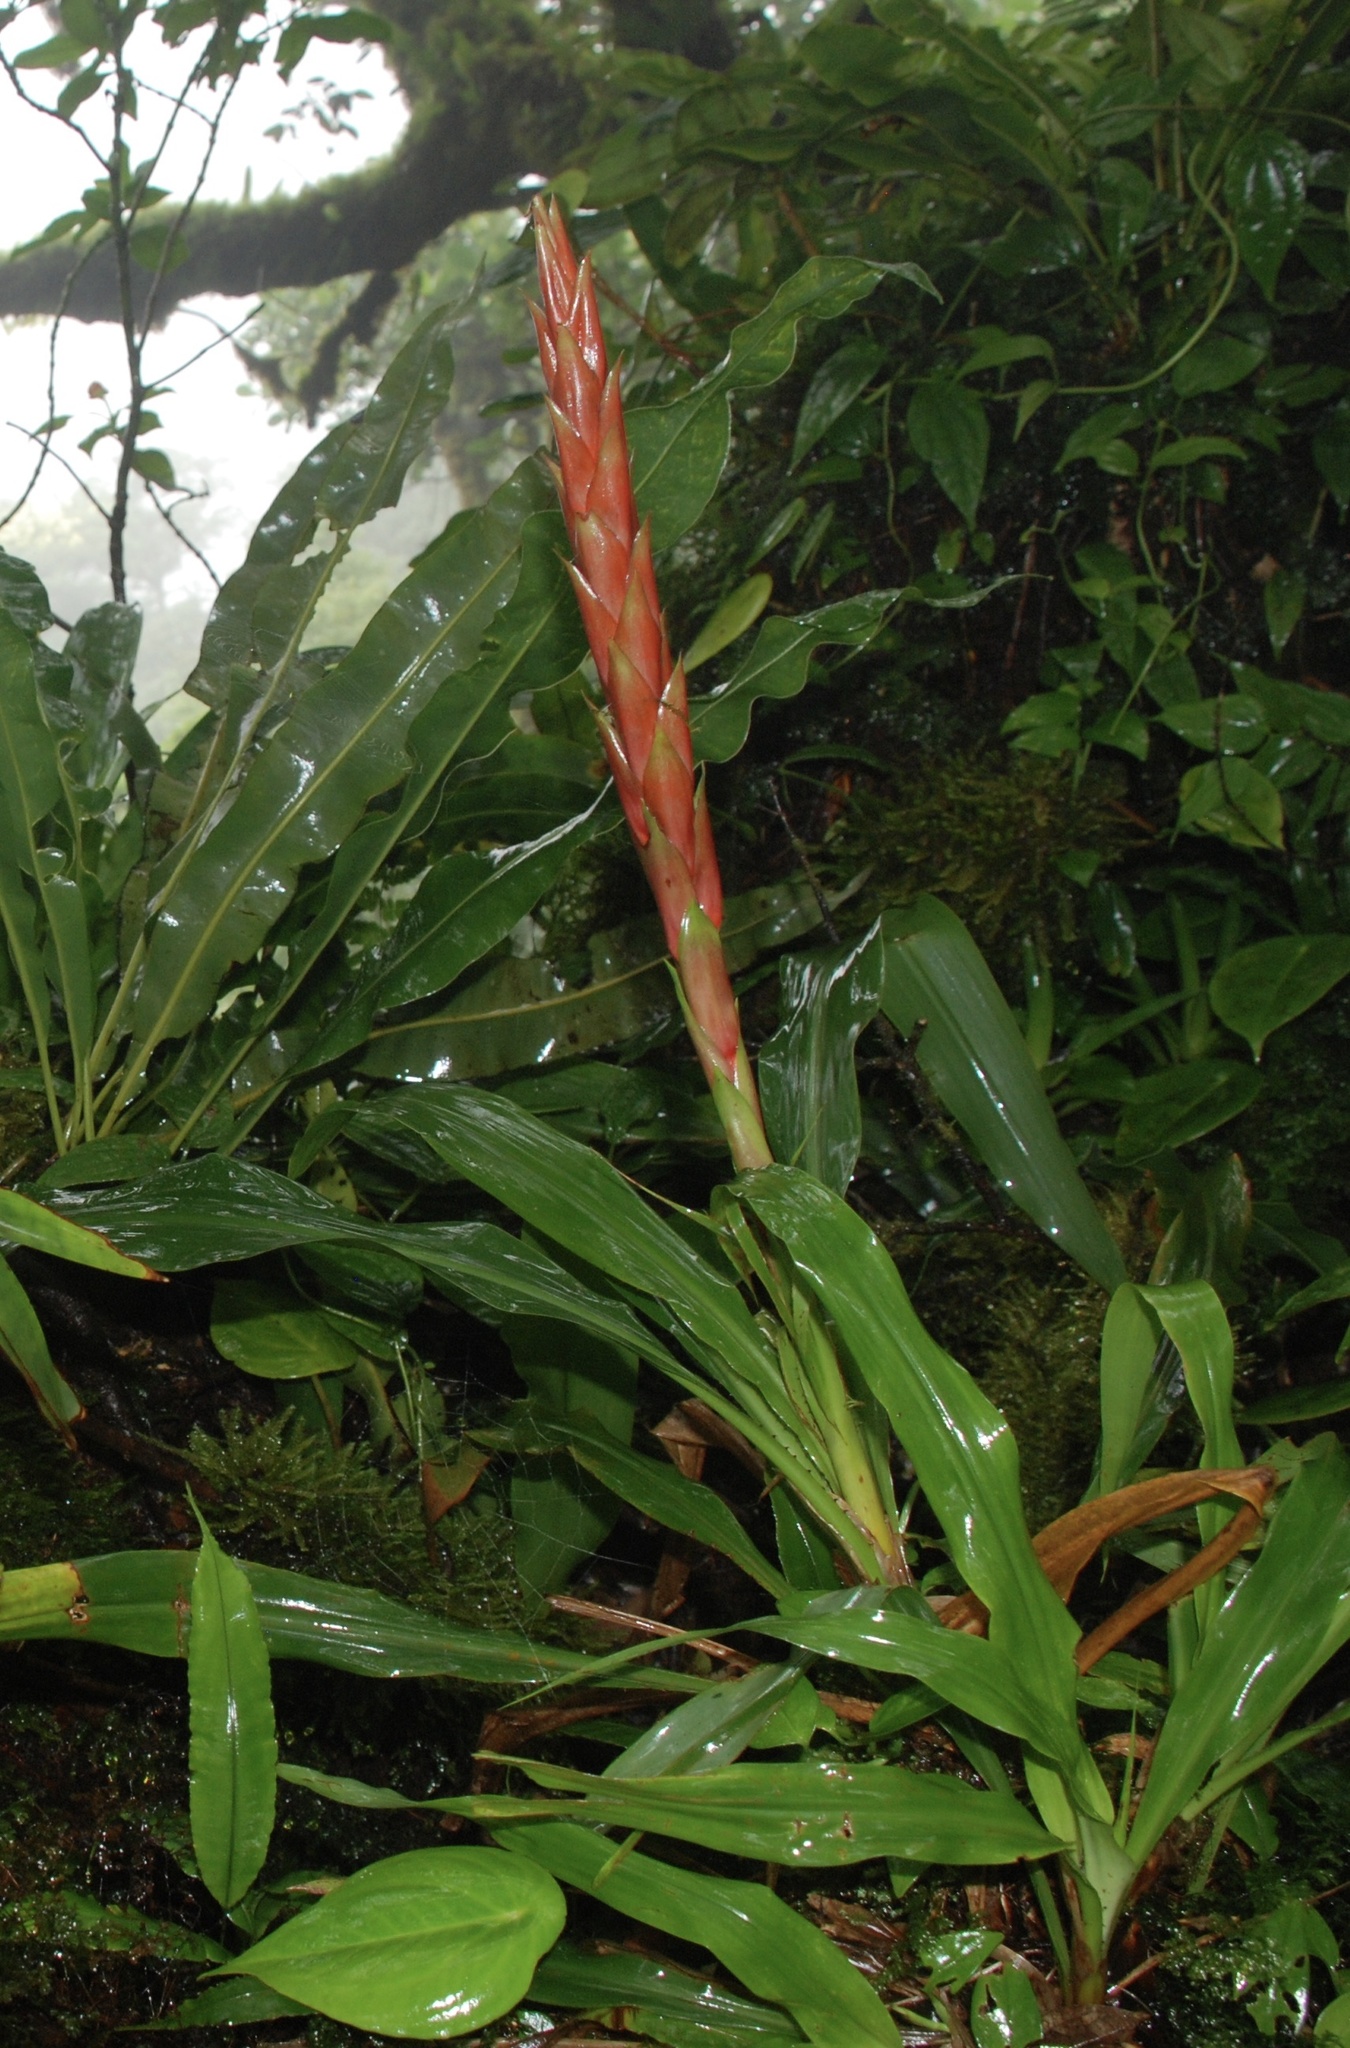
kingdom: Plantae
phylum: Tracheophyta
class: Liliopsida
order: Poales
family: Bromeliaceae
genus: Pitcairnia
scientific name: Pitcairnia imbricata
